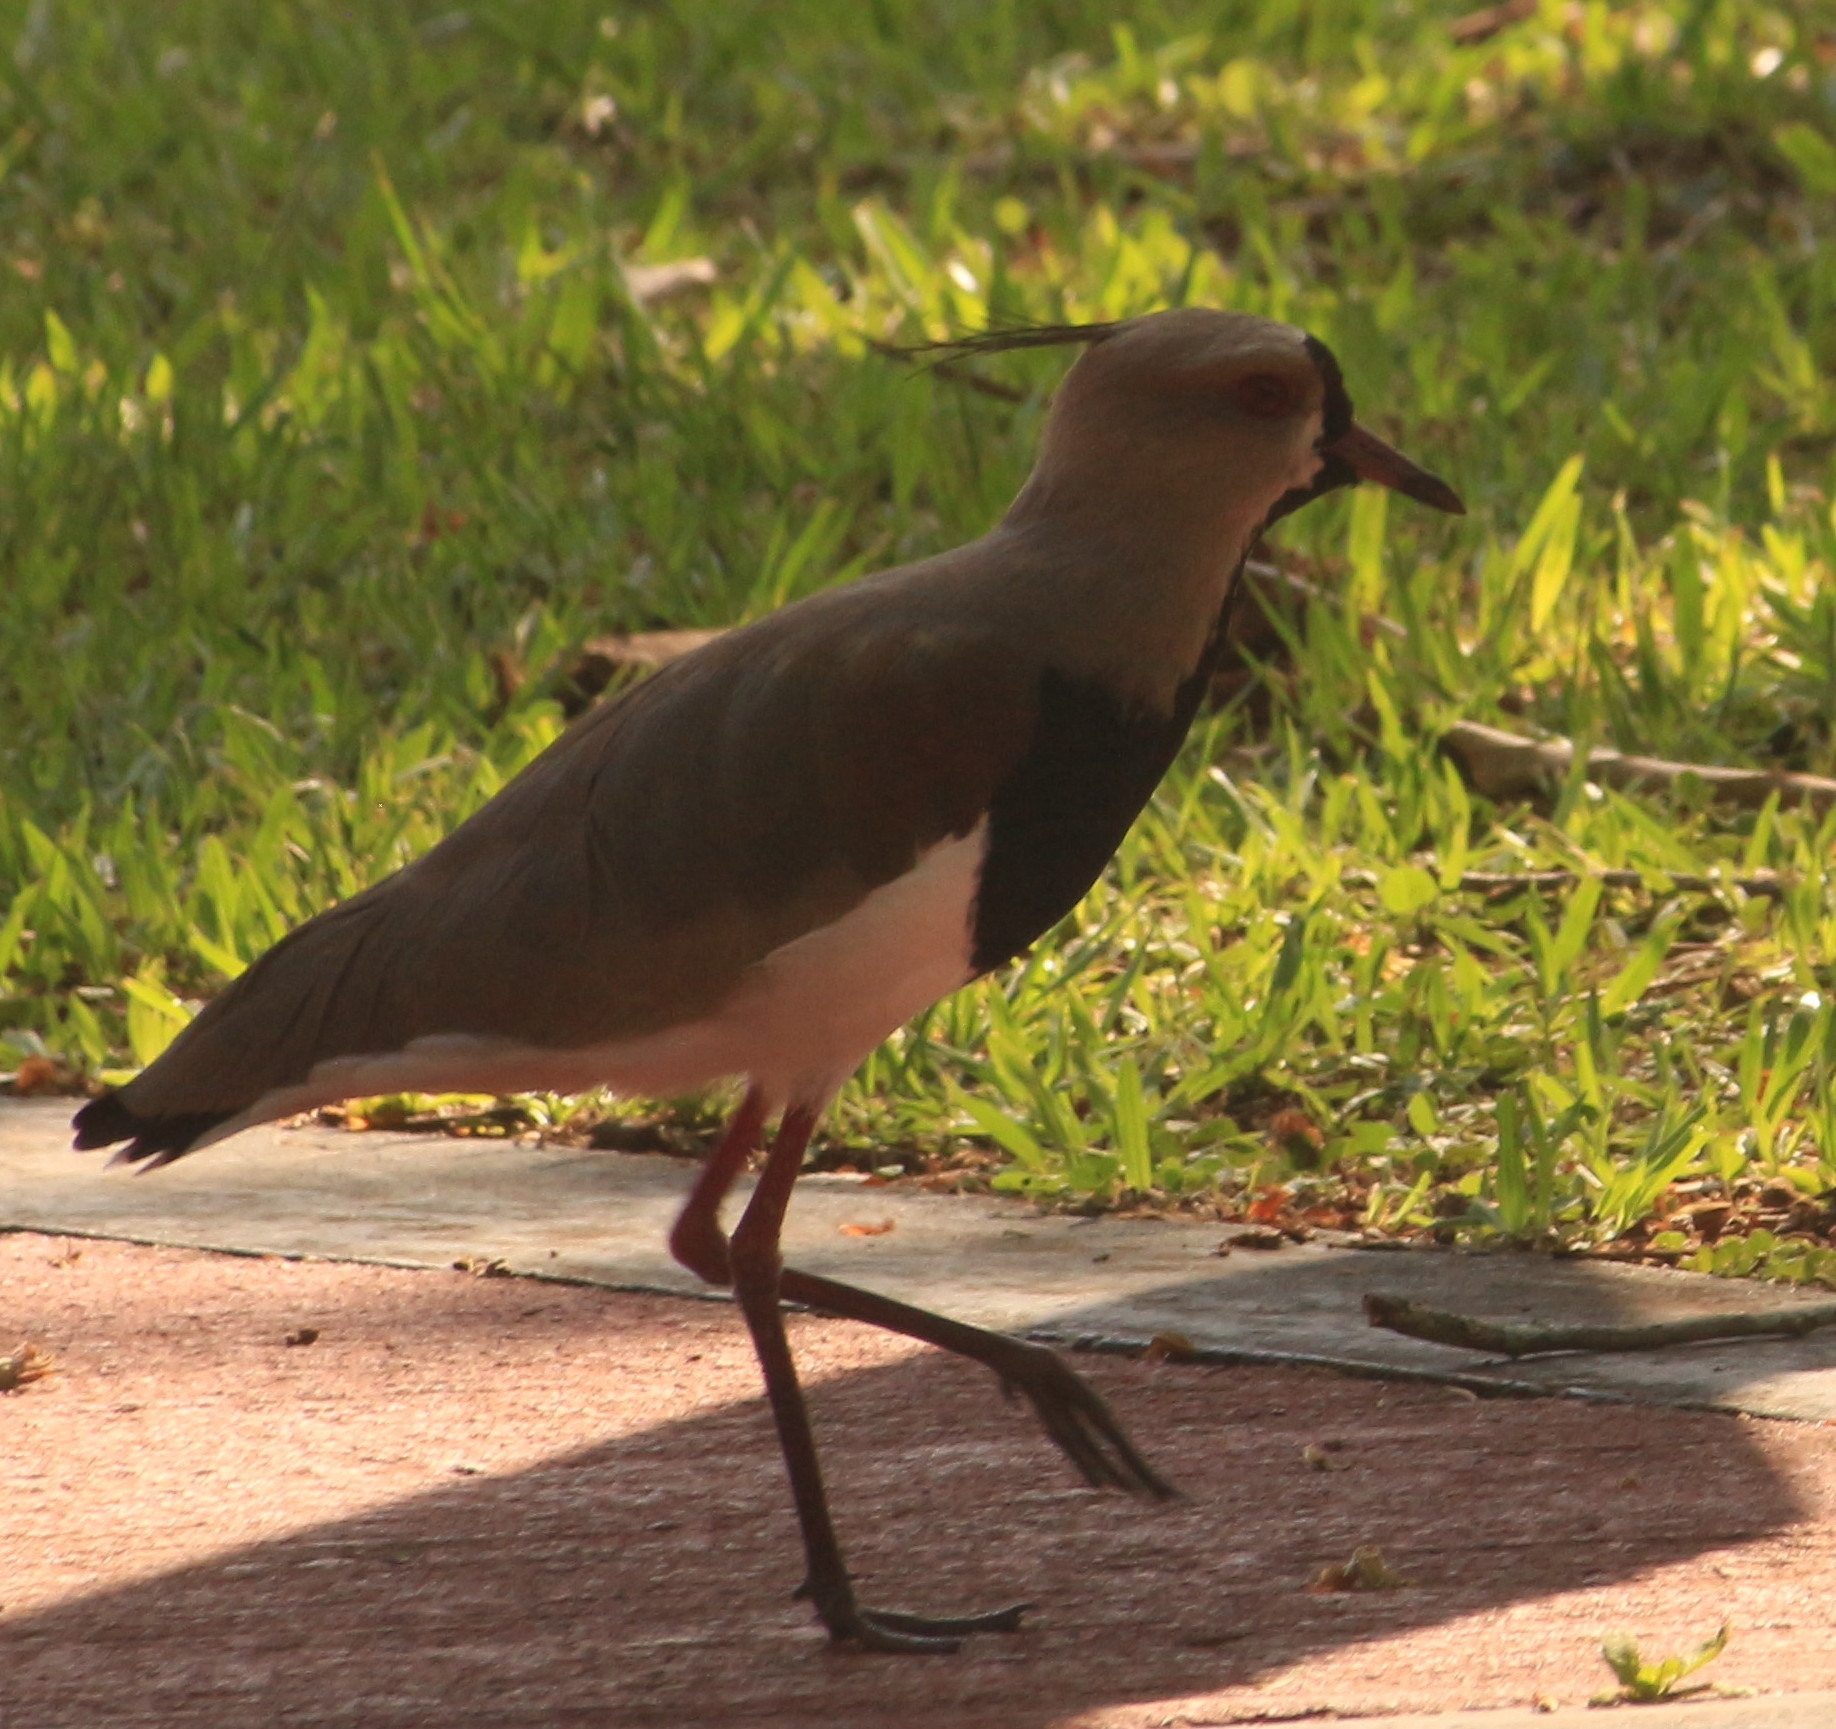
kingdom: Animalia
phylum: Chordata
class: Aves
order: Charadriiformes
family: Charadriidae
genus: Vanellus
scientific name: Vanellus chilensis
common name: Southern lapwing
